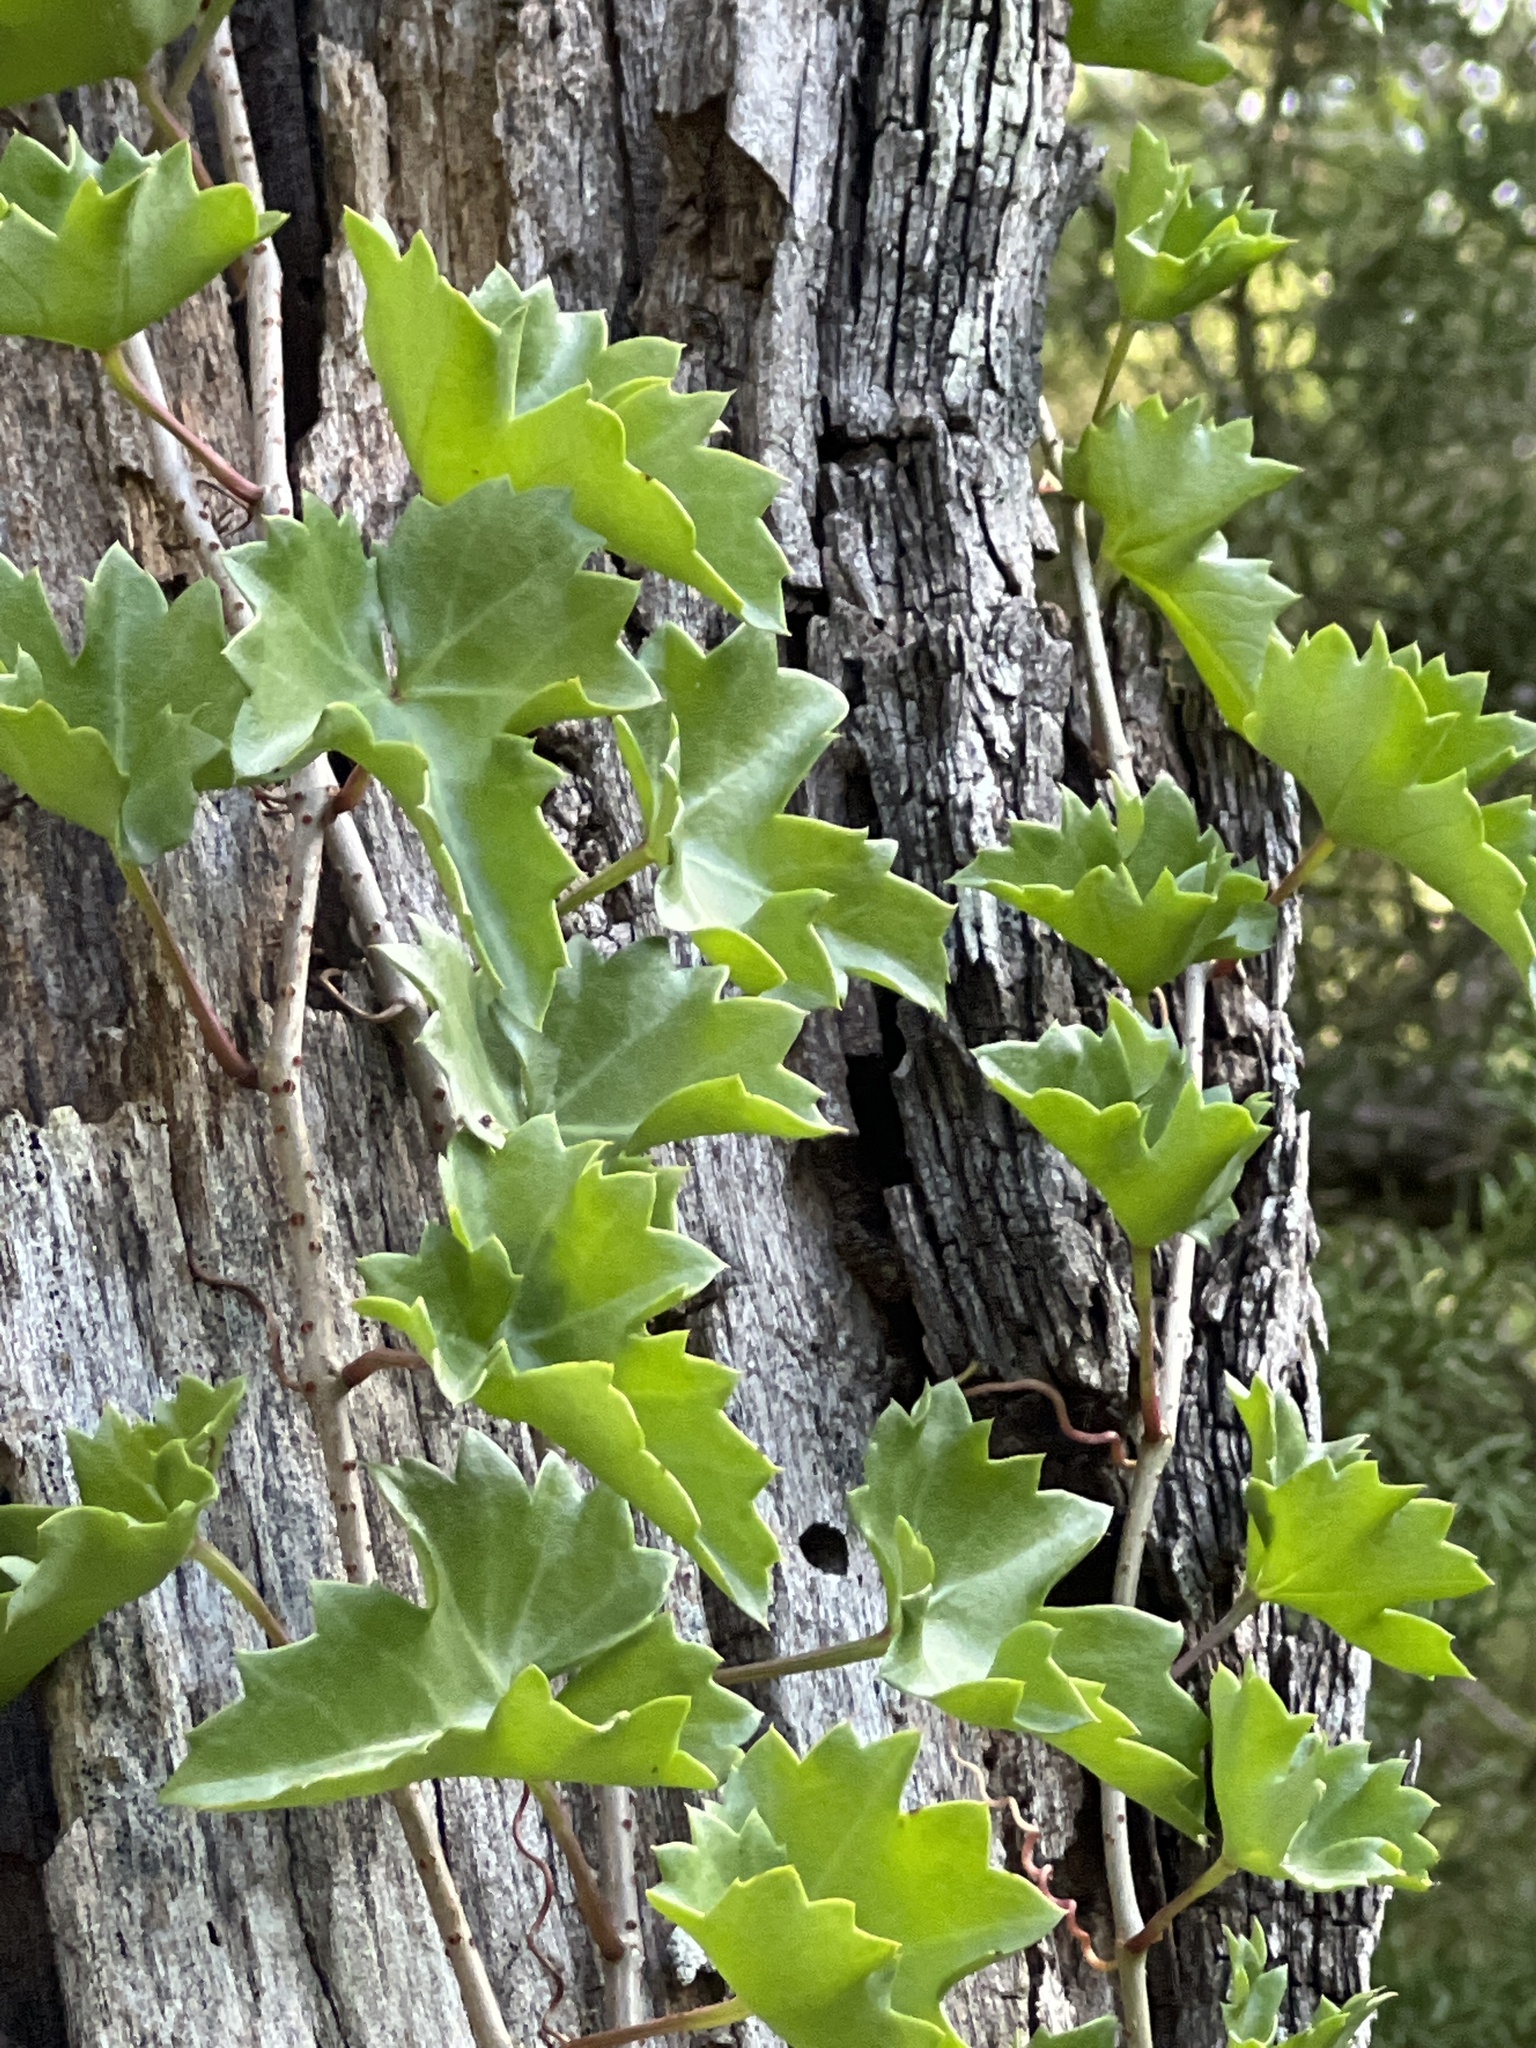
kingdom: Plantae
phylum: Tracheophyta
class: Magnoliopsida
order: Vitales
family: Vitaceae
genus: Cissus
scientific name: Cissus trifoliata
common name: Vine-sorrel
